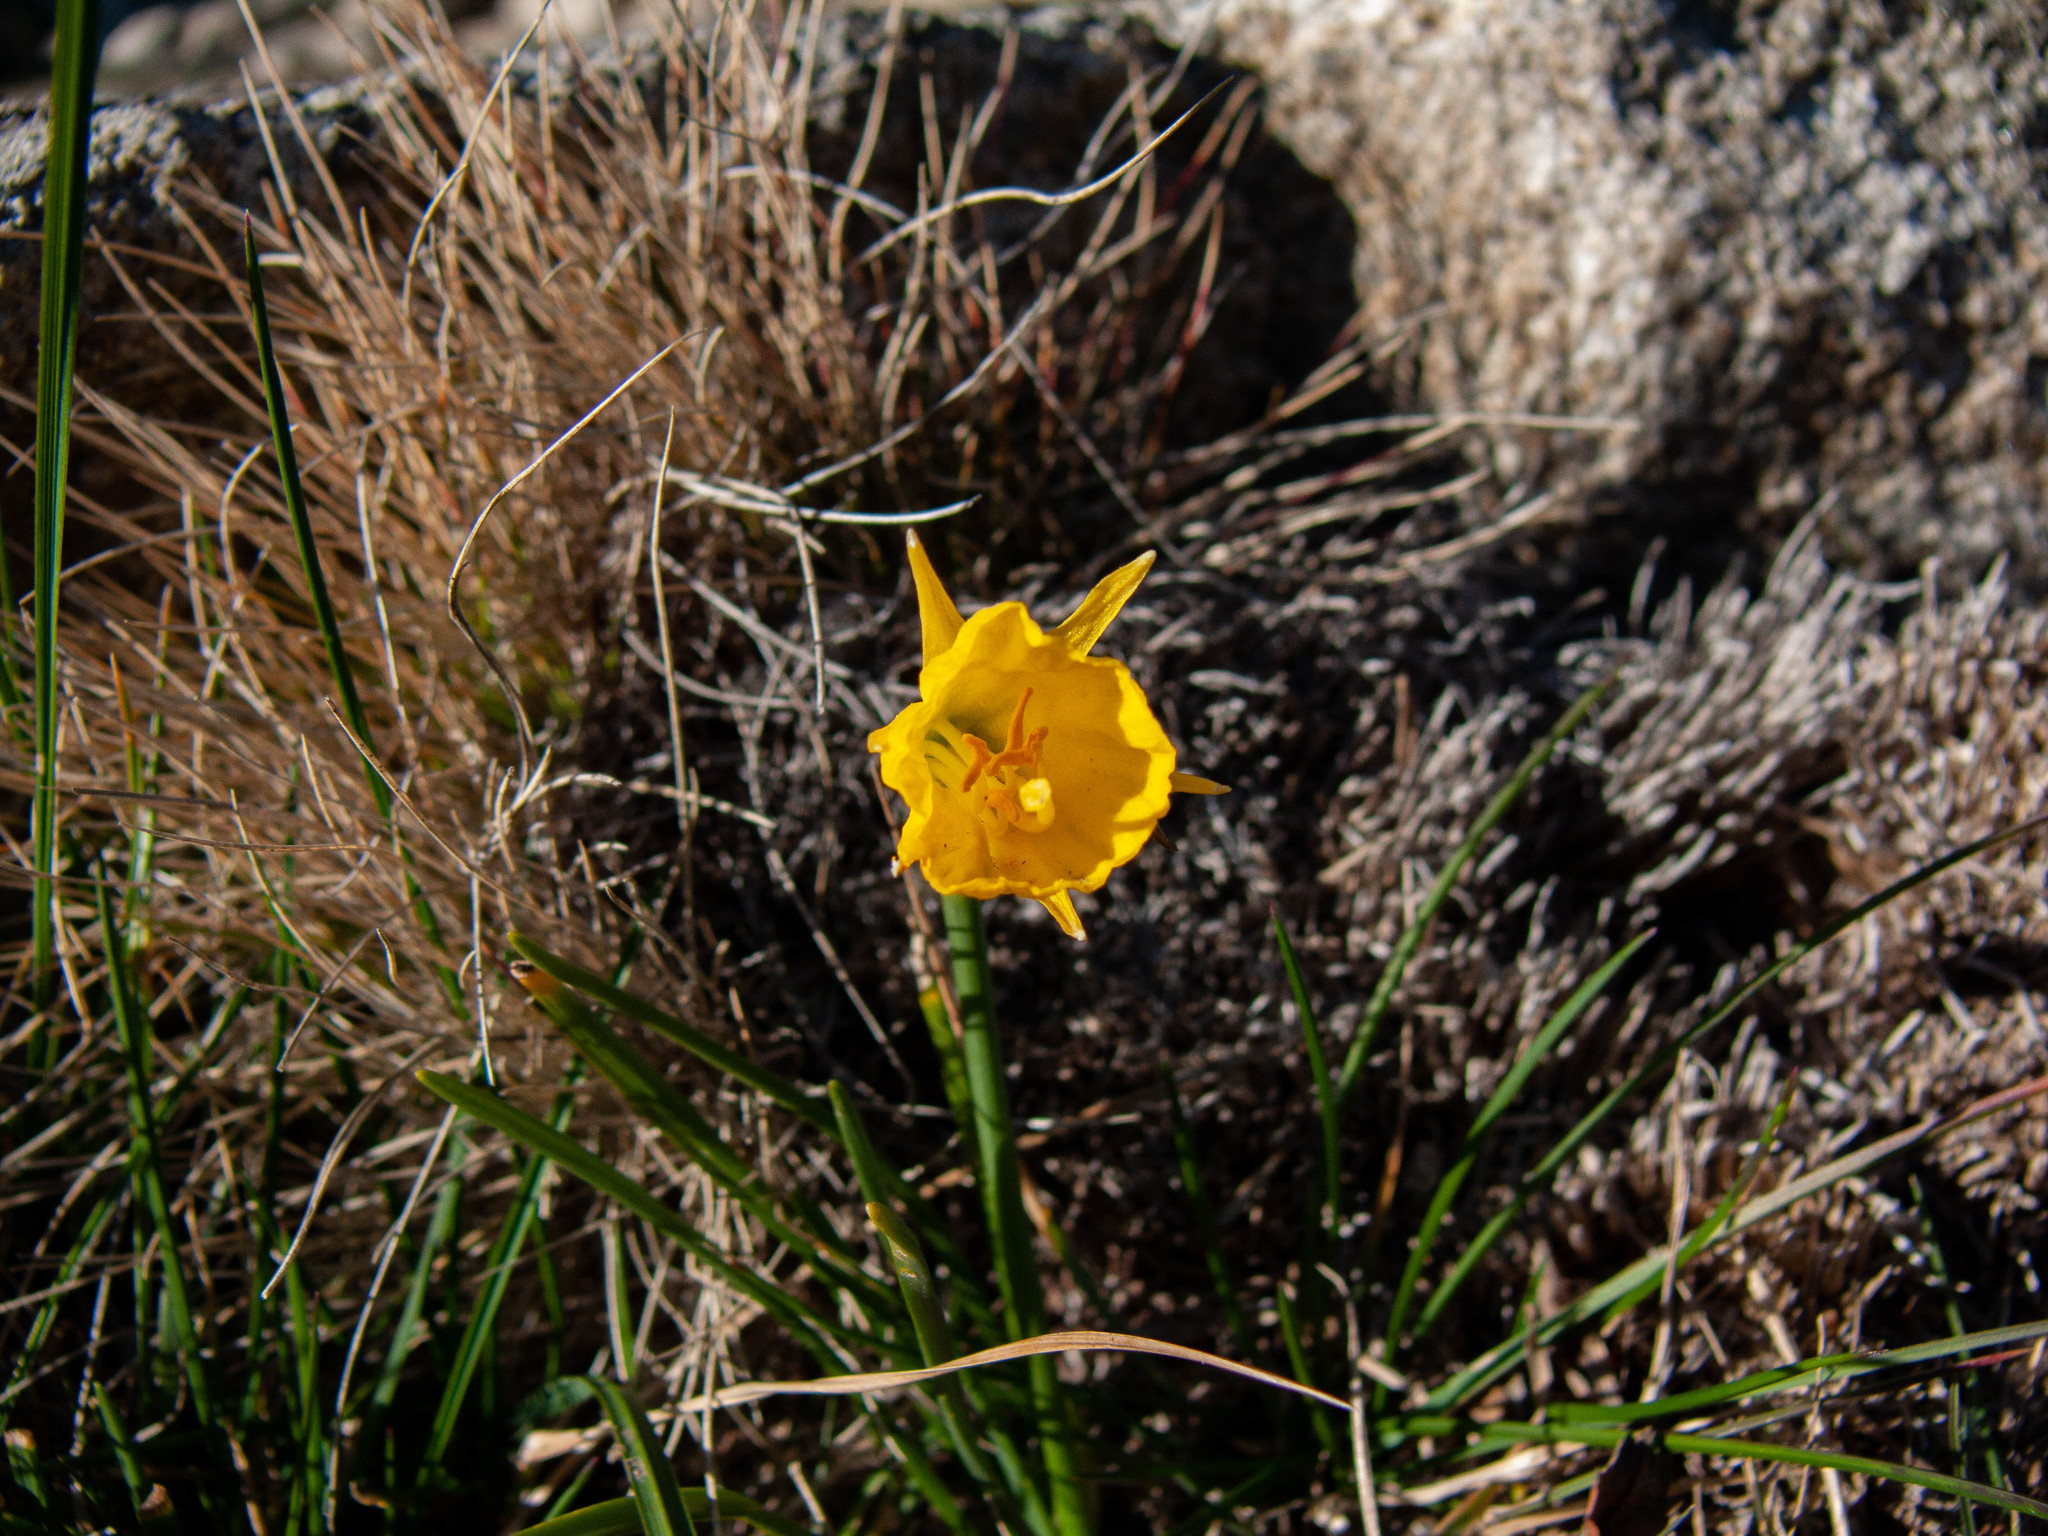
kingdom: Plantae
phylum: Tracheophyta
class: Liliopsida
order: Asparagales
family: Amaryllidaceae
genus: Narcissus
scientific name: Narcissus bulbocodium
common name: Hoop-petticoat daffodil
